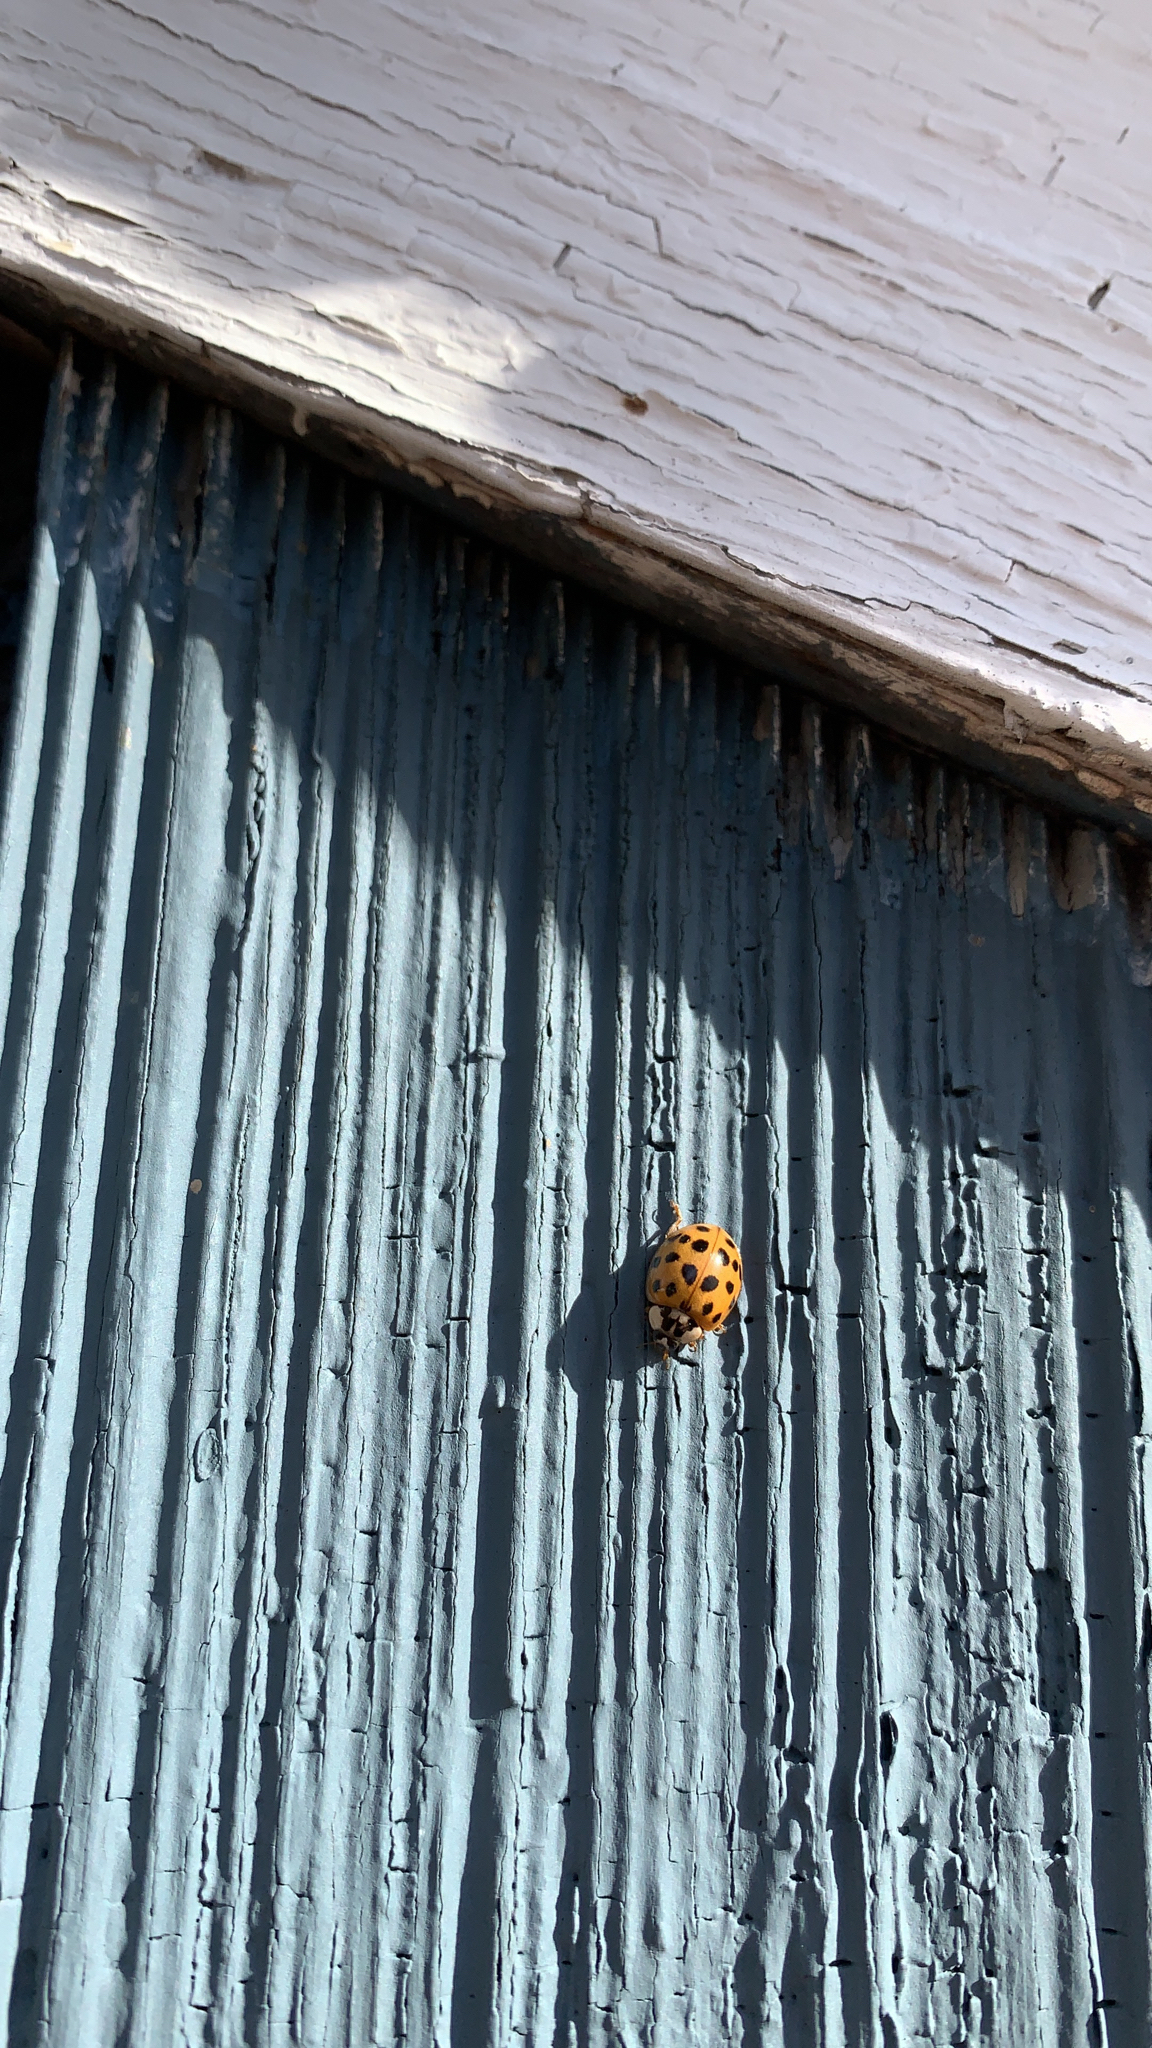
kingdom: Animalia
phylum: Arthropoda
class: Insecta
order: Coleoptera
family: Coccinellidae
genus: Harmonia
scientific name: Harmonia axyridis
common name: Harlequin ladybird
